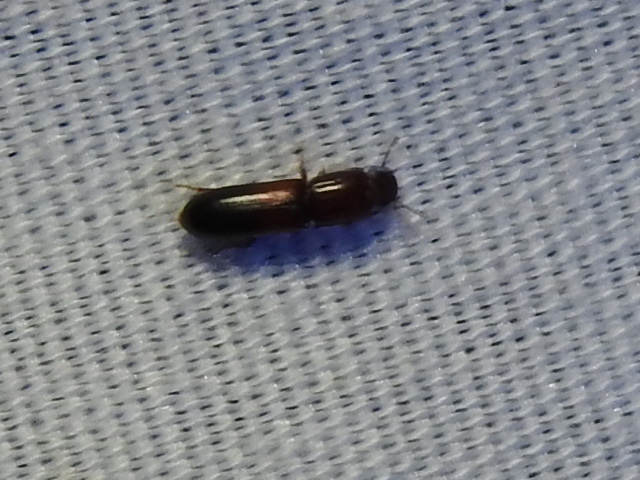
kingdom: Animalia
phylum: Arthropoda
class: Insecta
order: Coleoptera
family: Zopheridae
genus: Aulonium
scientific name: Aulonium tuberculatum
